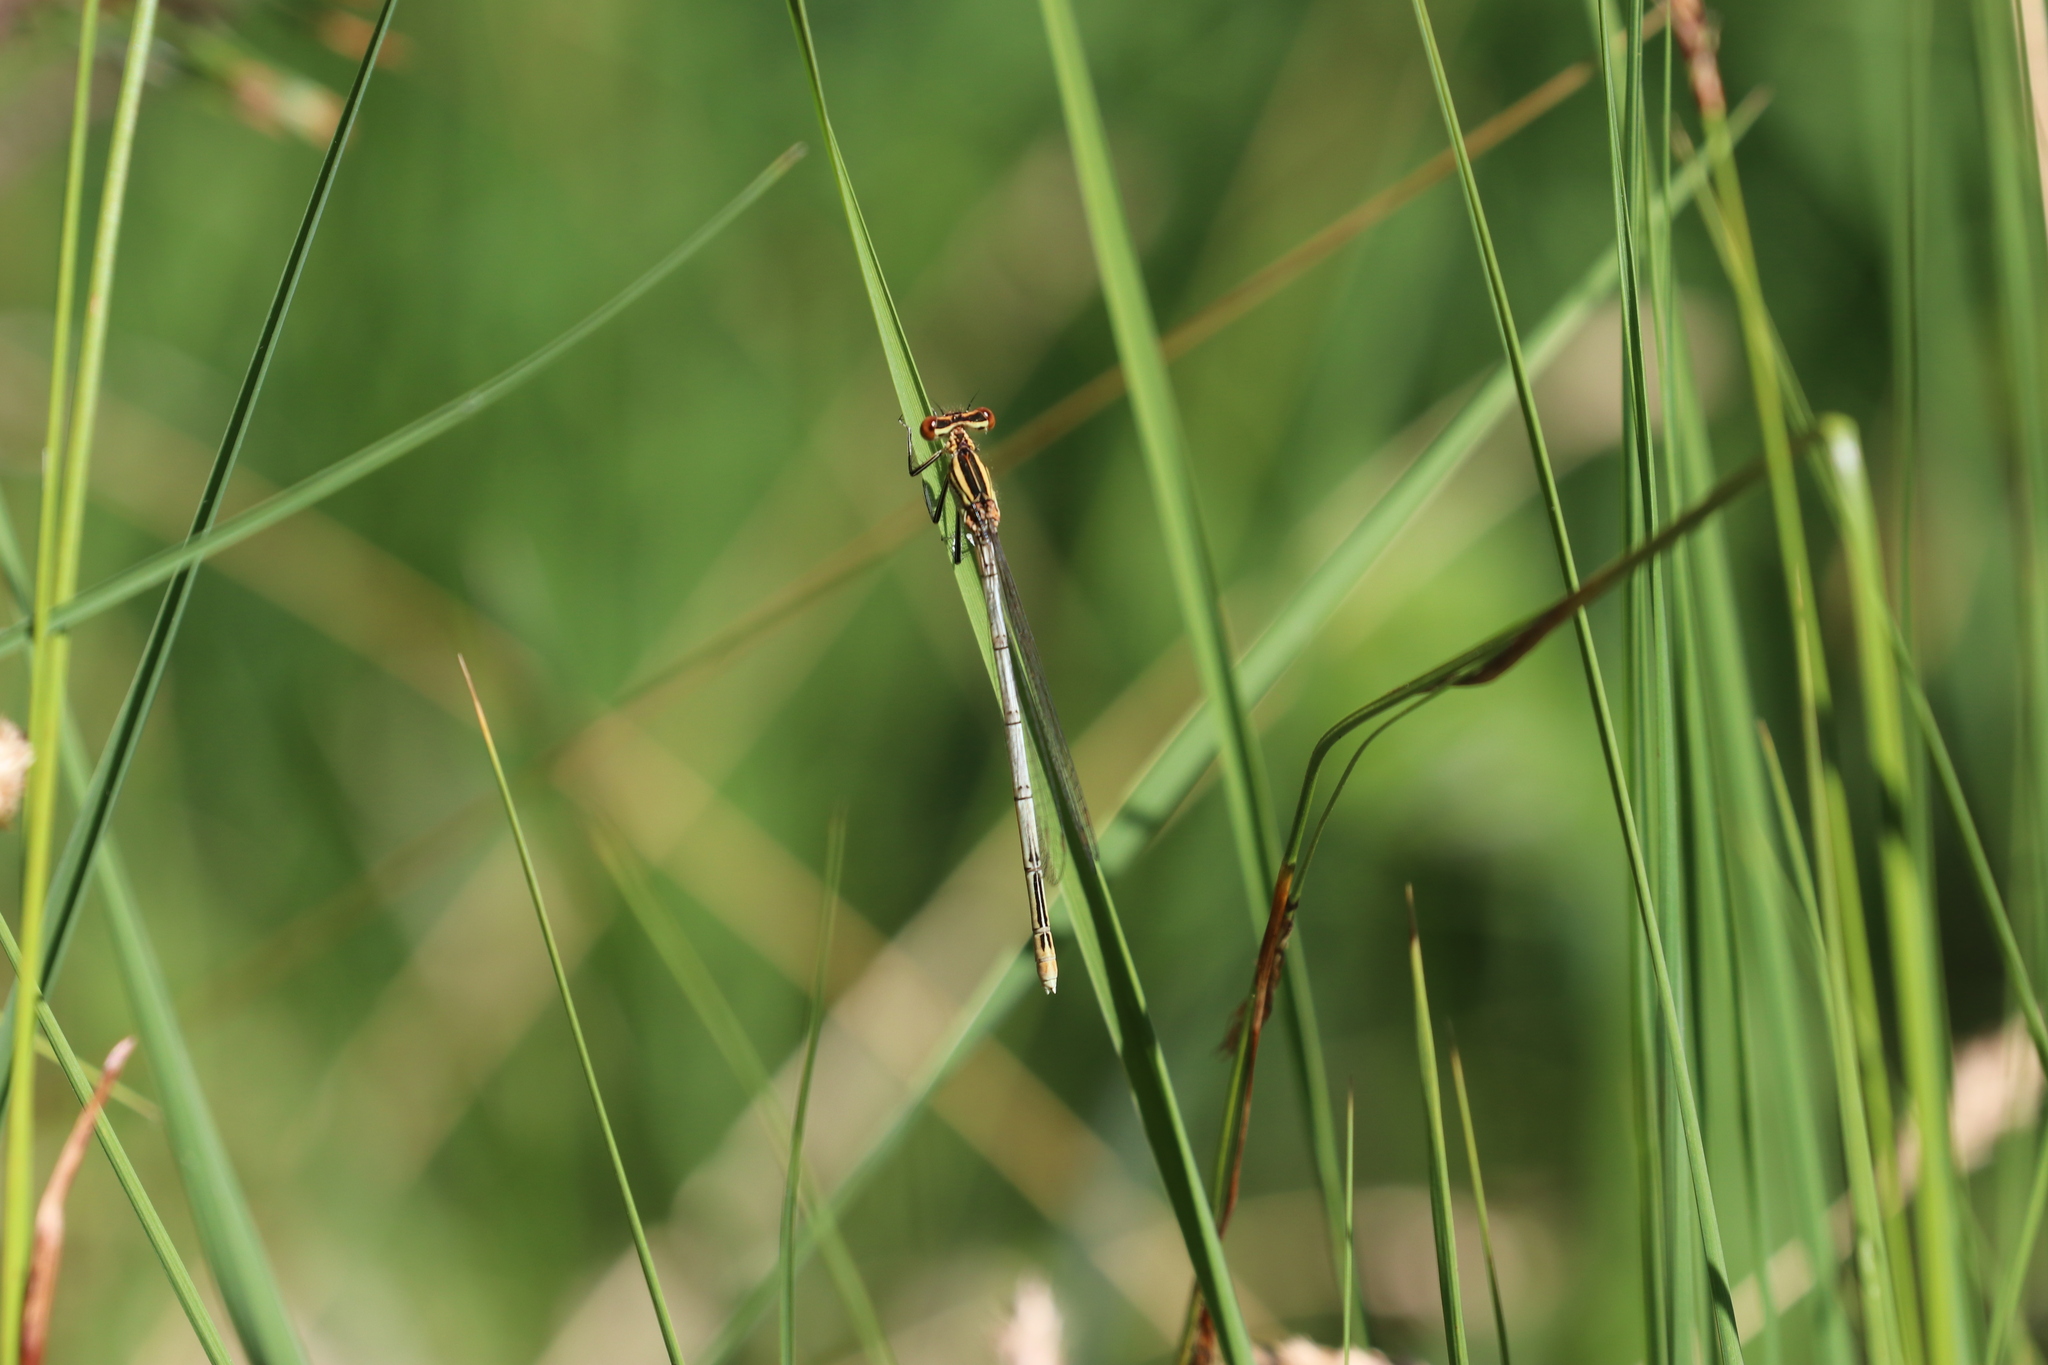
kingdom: Animalia
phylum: Arthropoda
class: Insecta
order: Odonata
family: Platycnemididae
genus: Platycnemis
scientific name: Platycnemis pennipes
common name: White-legged damselfly
